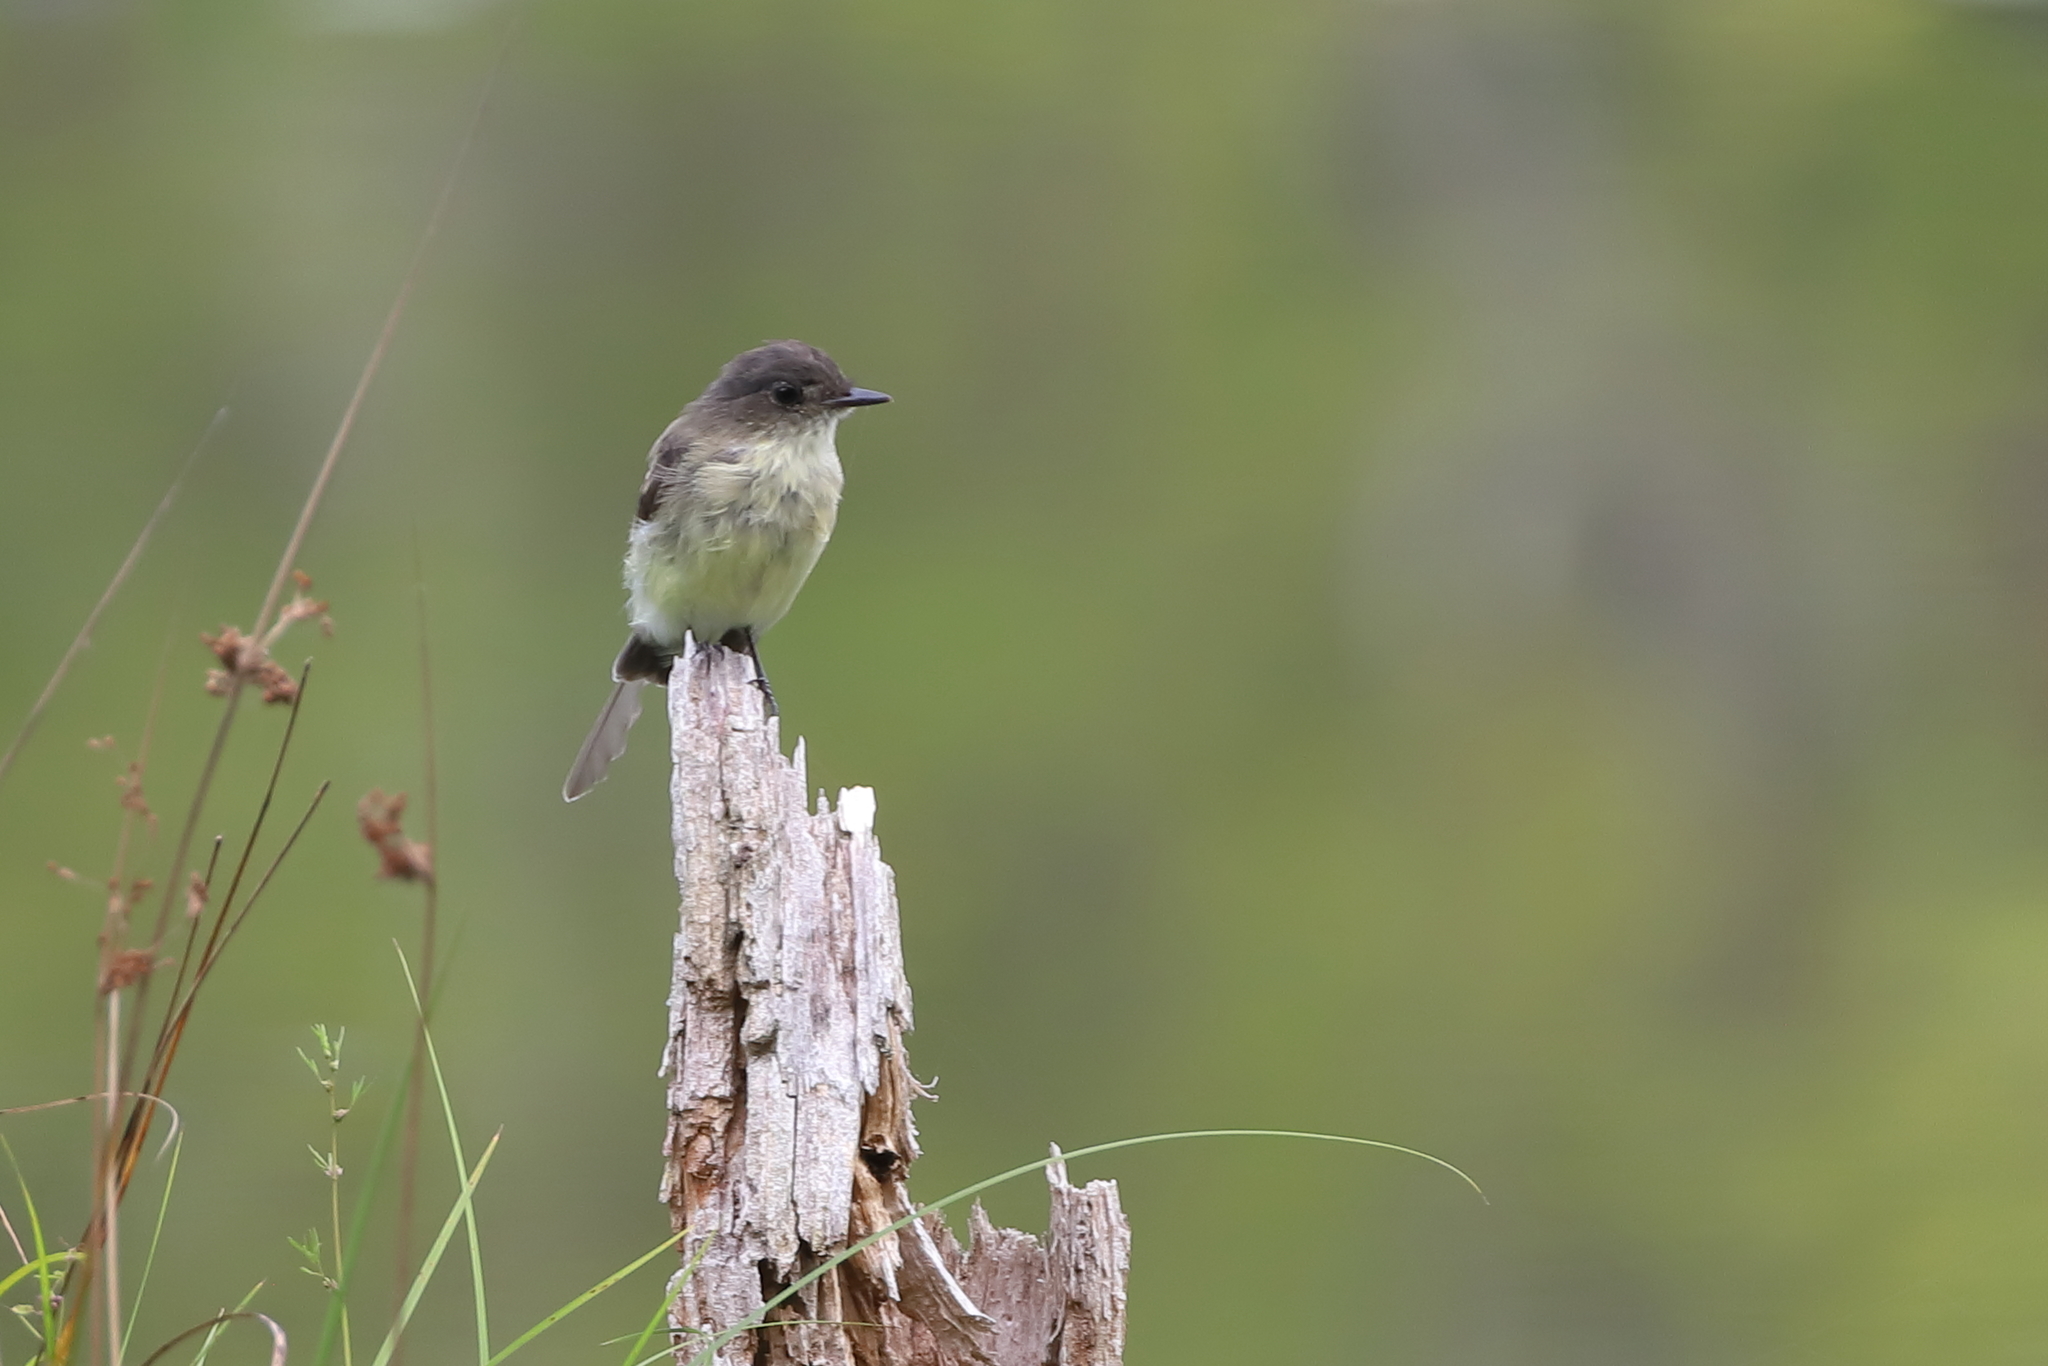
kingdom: Animalia
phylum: Chordata
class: Aves
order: Passeriformes
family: Tyrannidae
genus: Sayornis
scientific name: Sayornis phoebe
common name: Eastern phoebe
